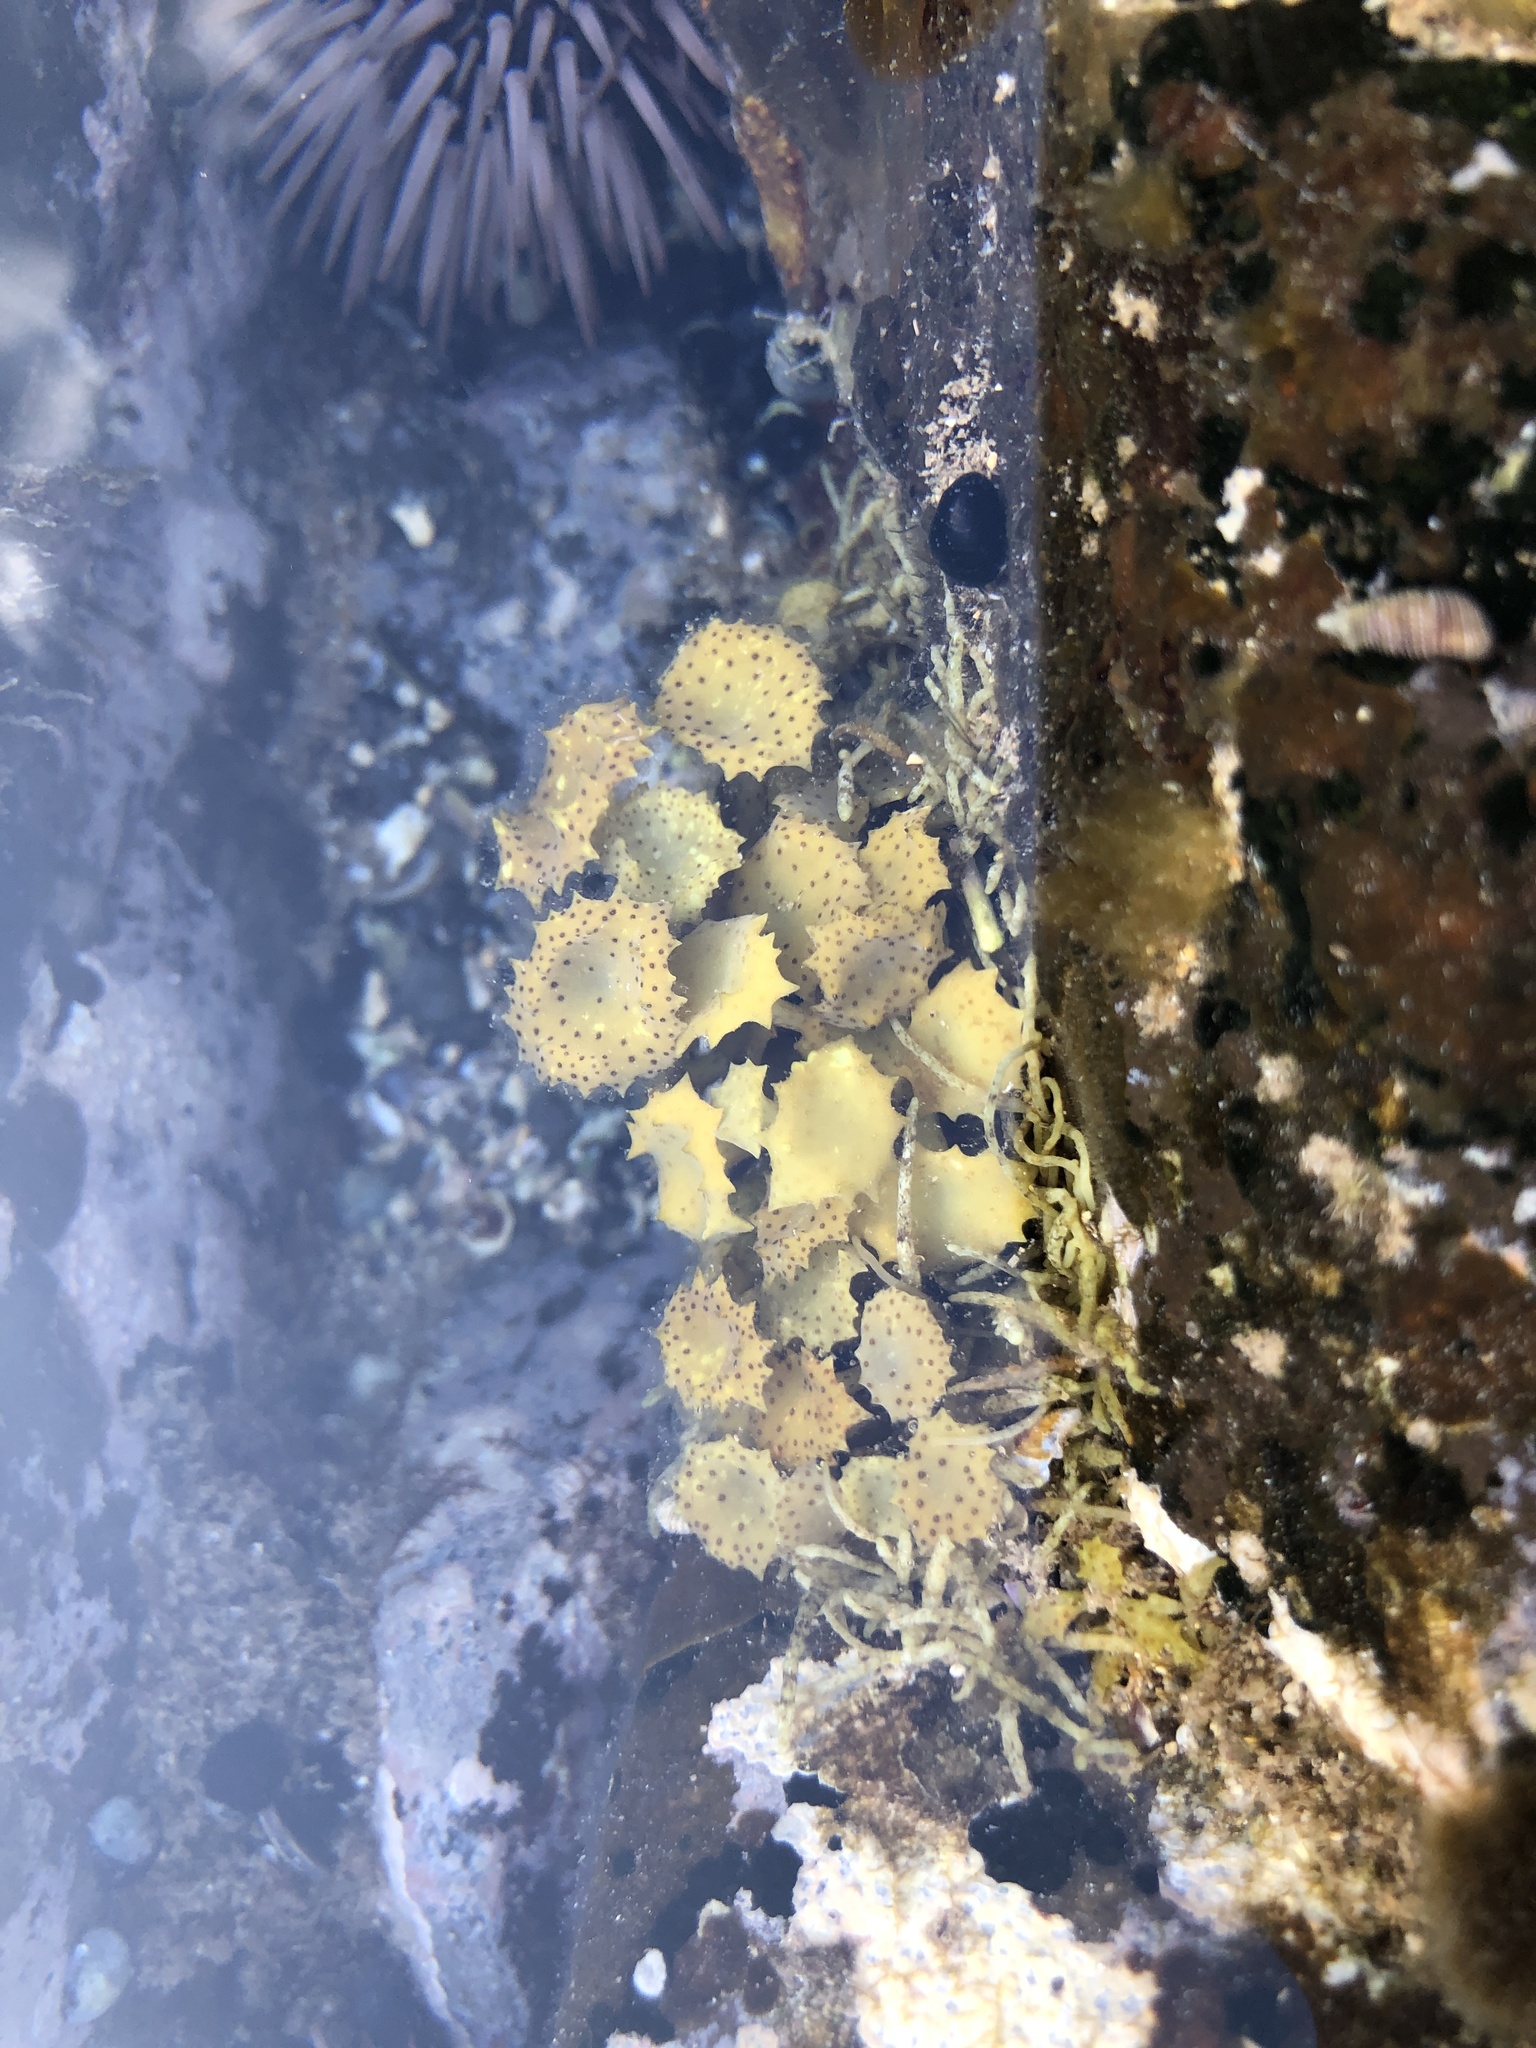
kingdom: Chromista
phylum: Ochrophyta
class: Phaeophyceae
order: Fucales
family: Sargassaceae
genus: Turbinaria
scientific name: Turbinaria ornata
